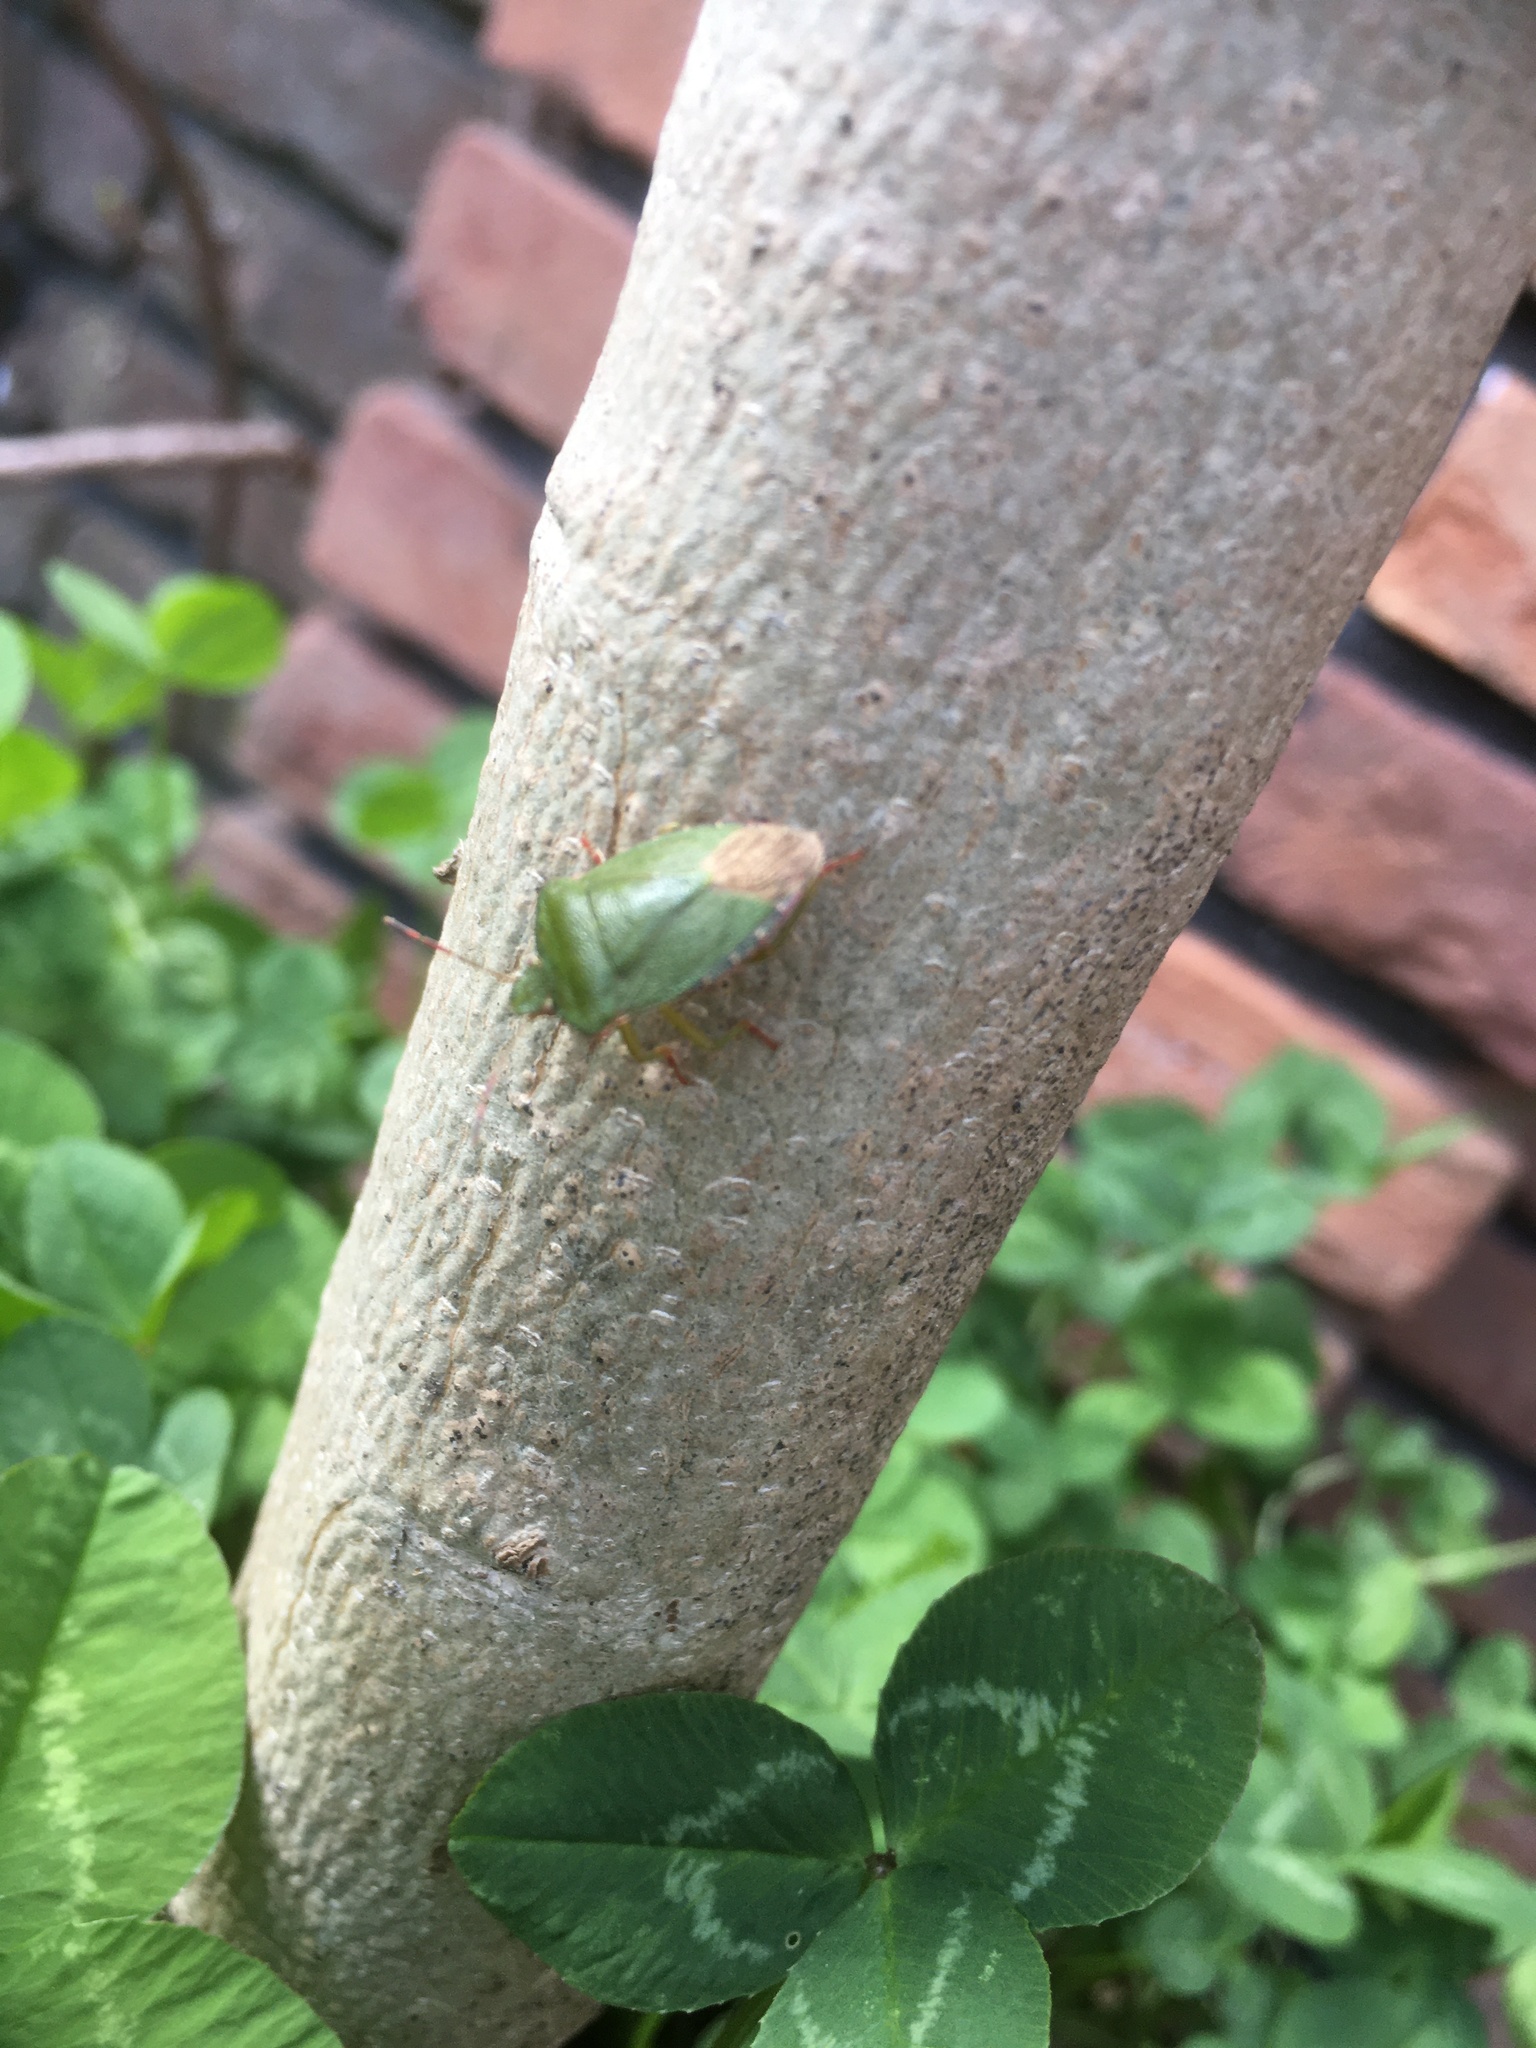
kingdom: Animalia
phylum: Arthropoda
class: Insecta
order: Hemiptera
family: Pentatomidae
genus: Palomena
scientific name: Palomena prasina
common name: Green shieldbug
